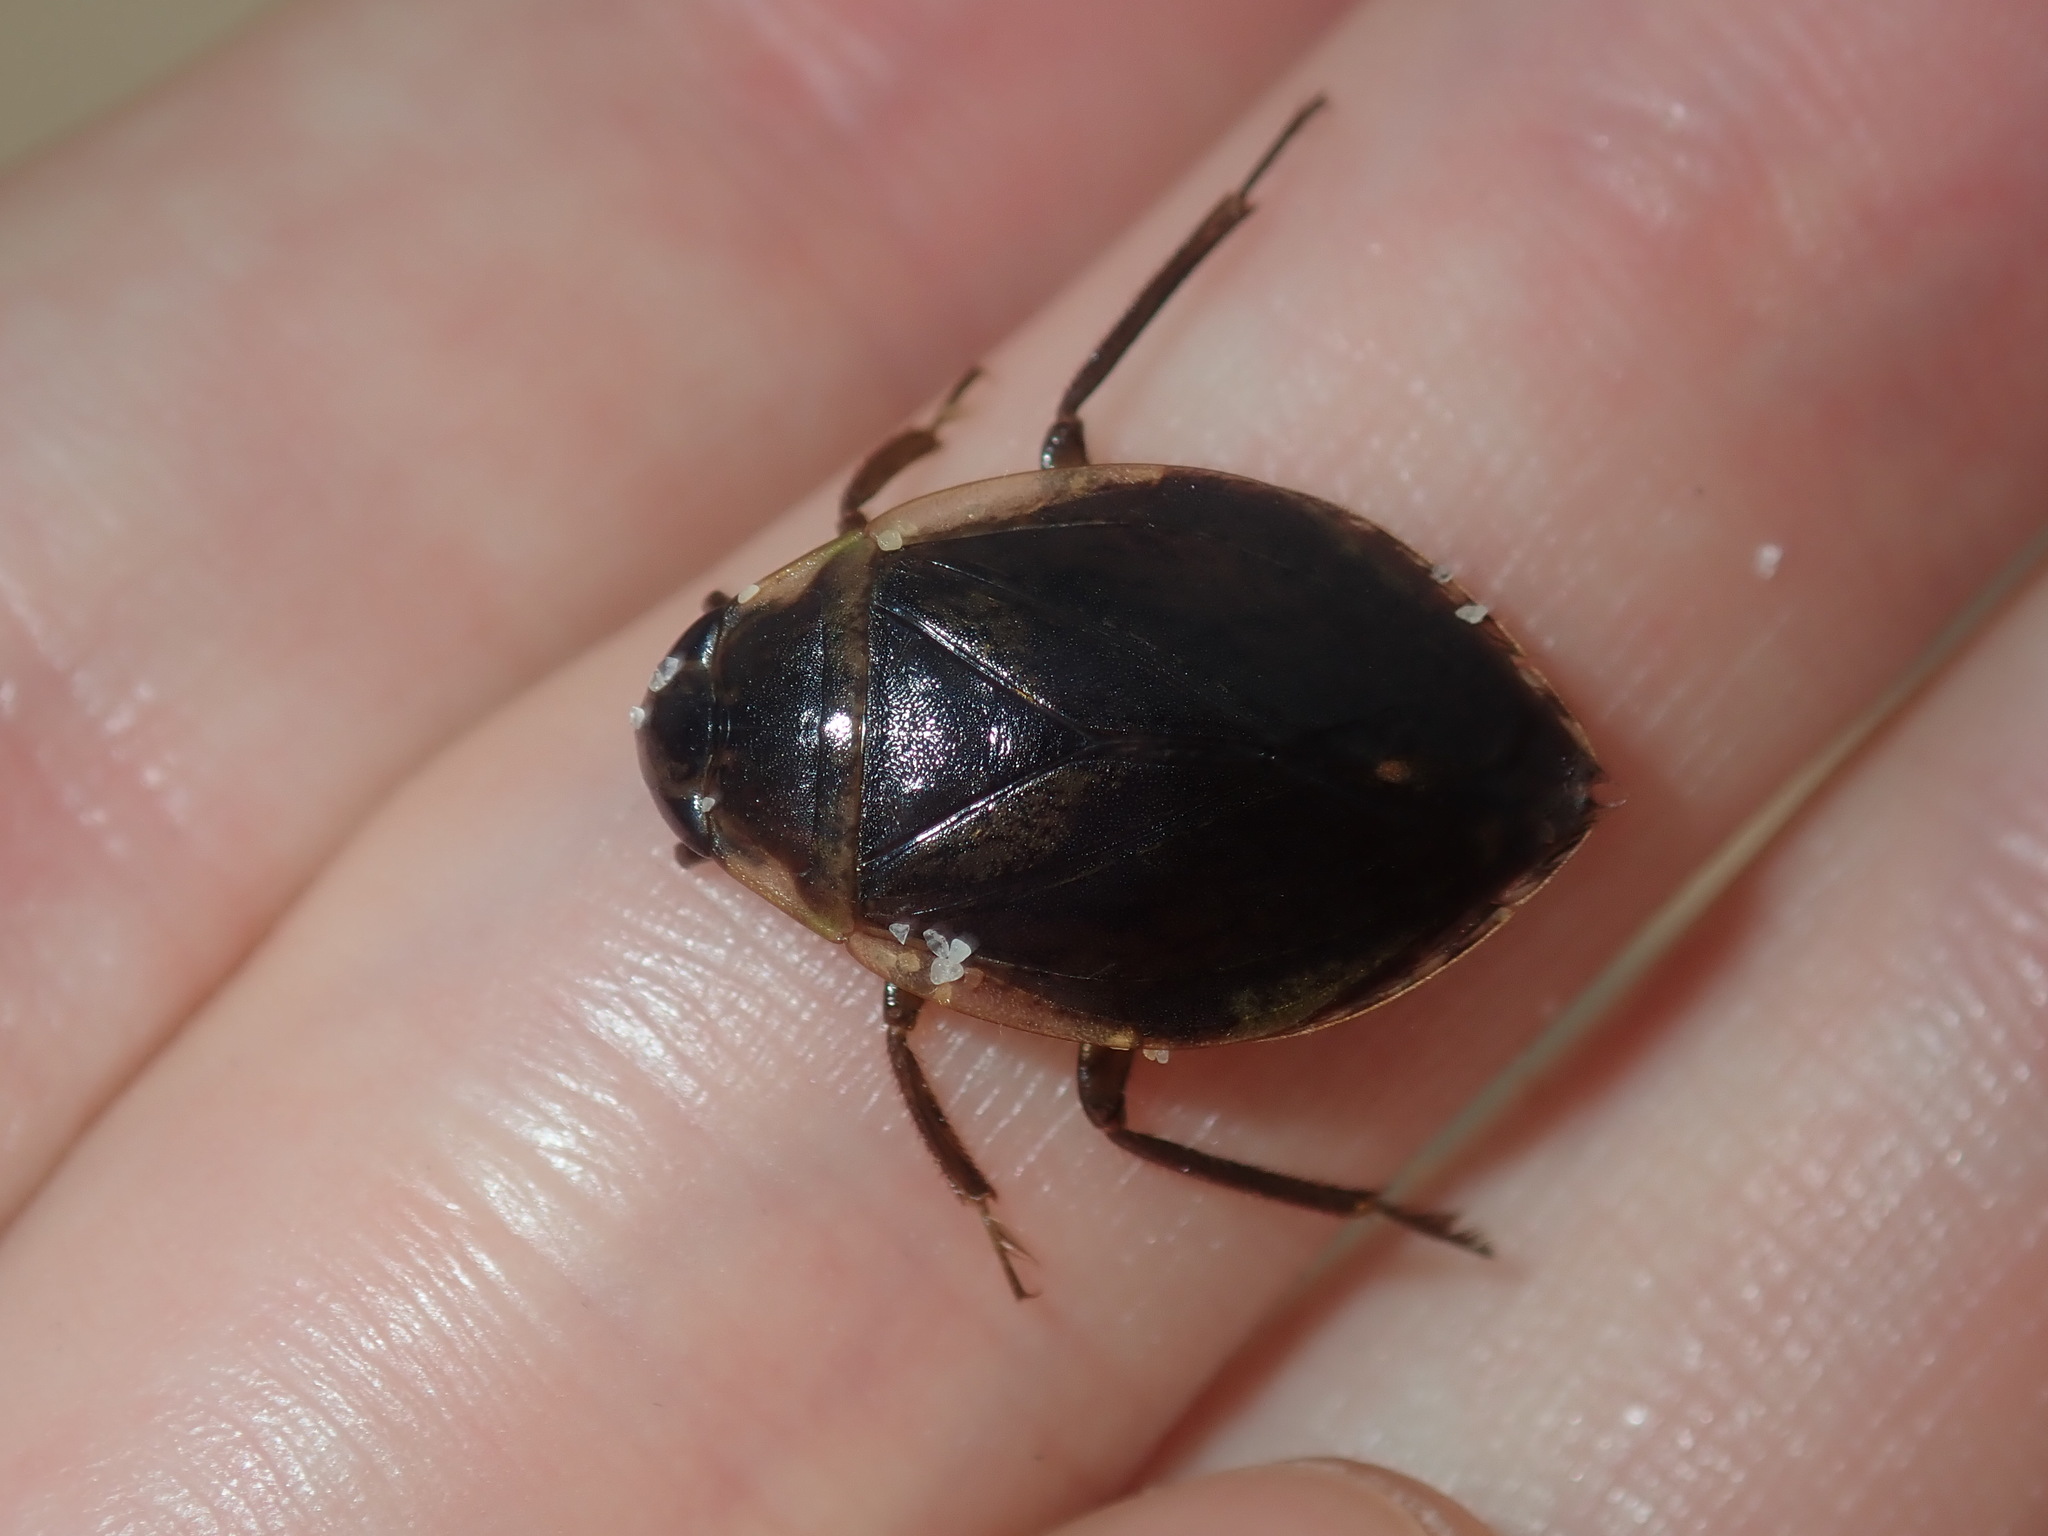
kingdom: Animalia
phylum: Arthropoda
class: Insecta
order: Hemiptera
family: Belostomatidae
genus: Diplonychus
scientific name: Diplonychus eques
